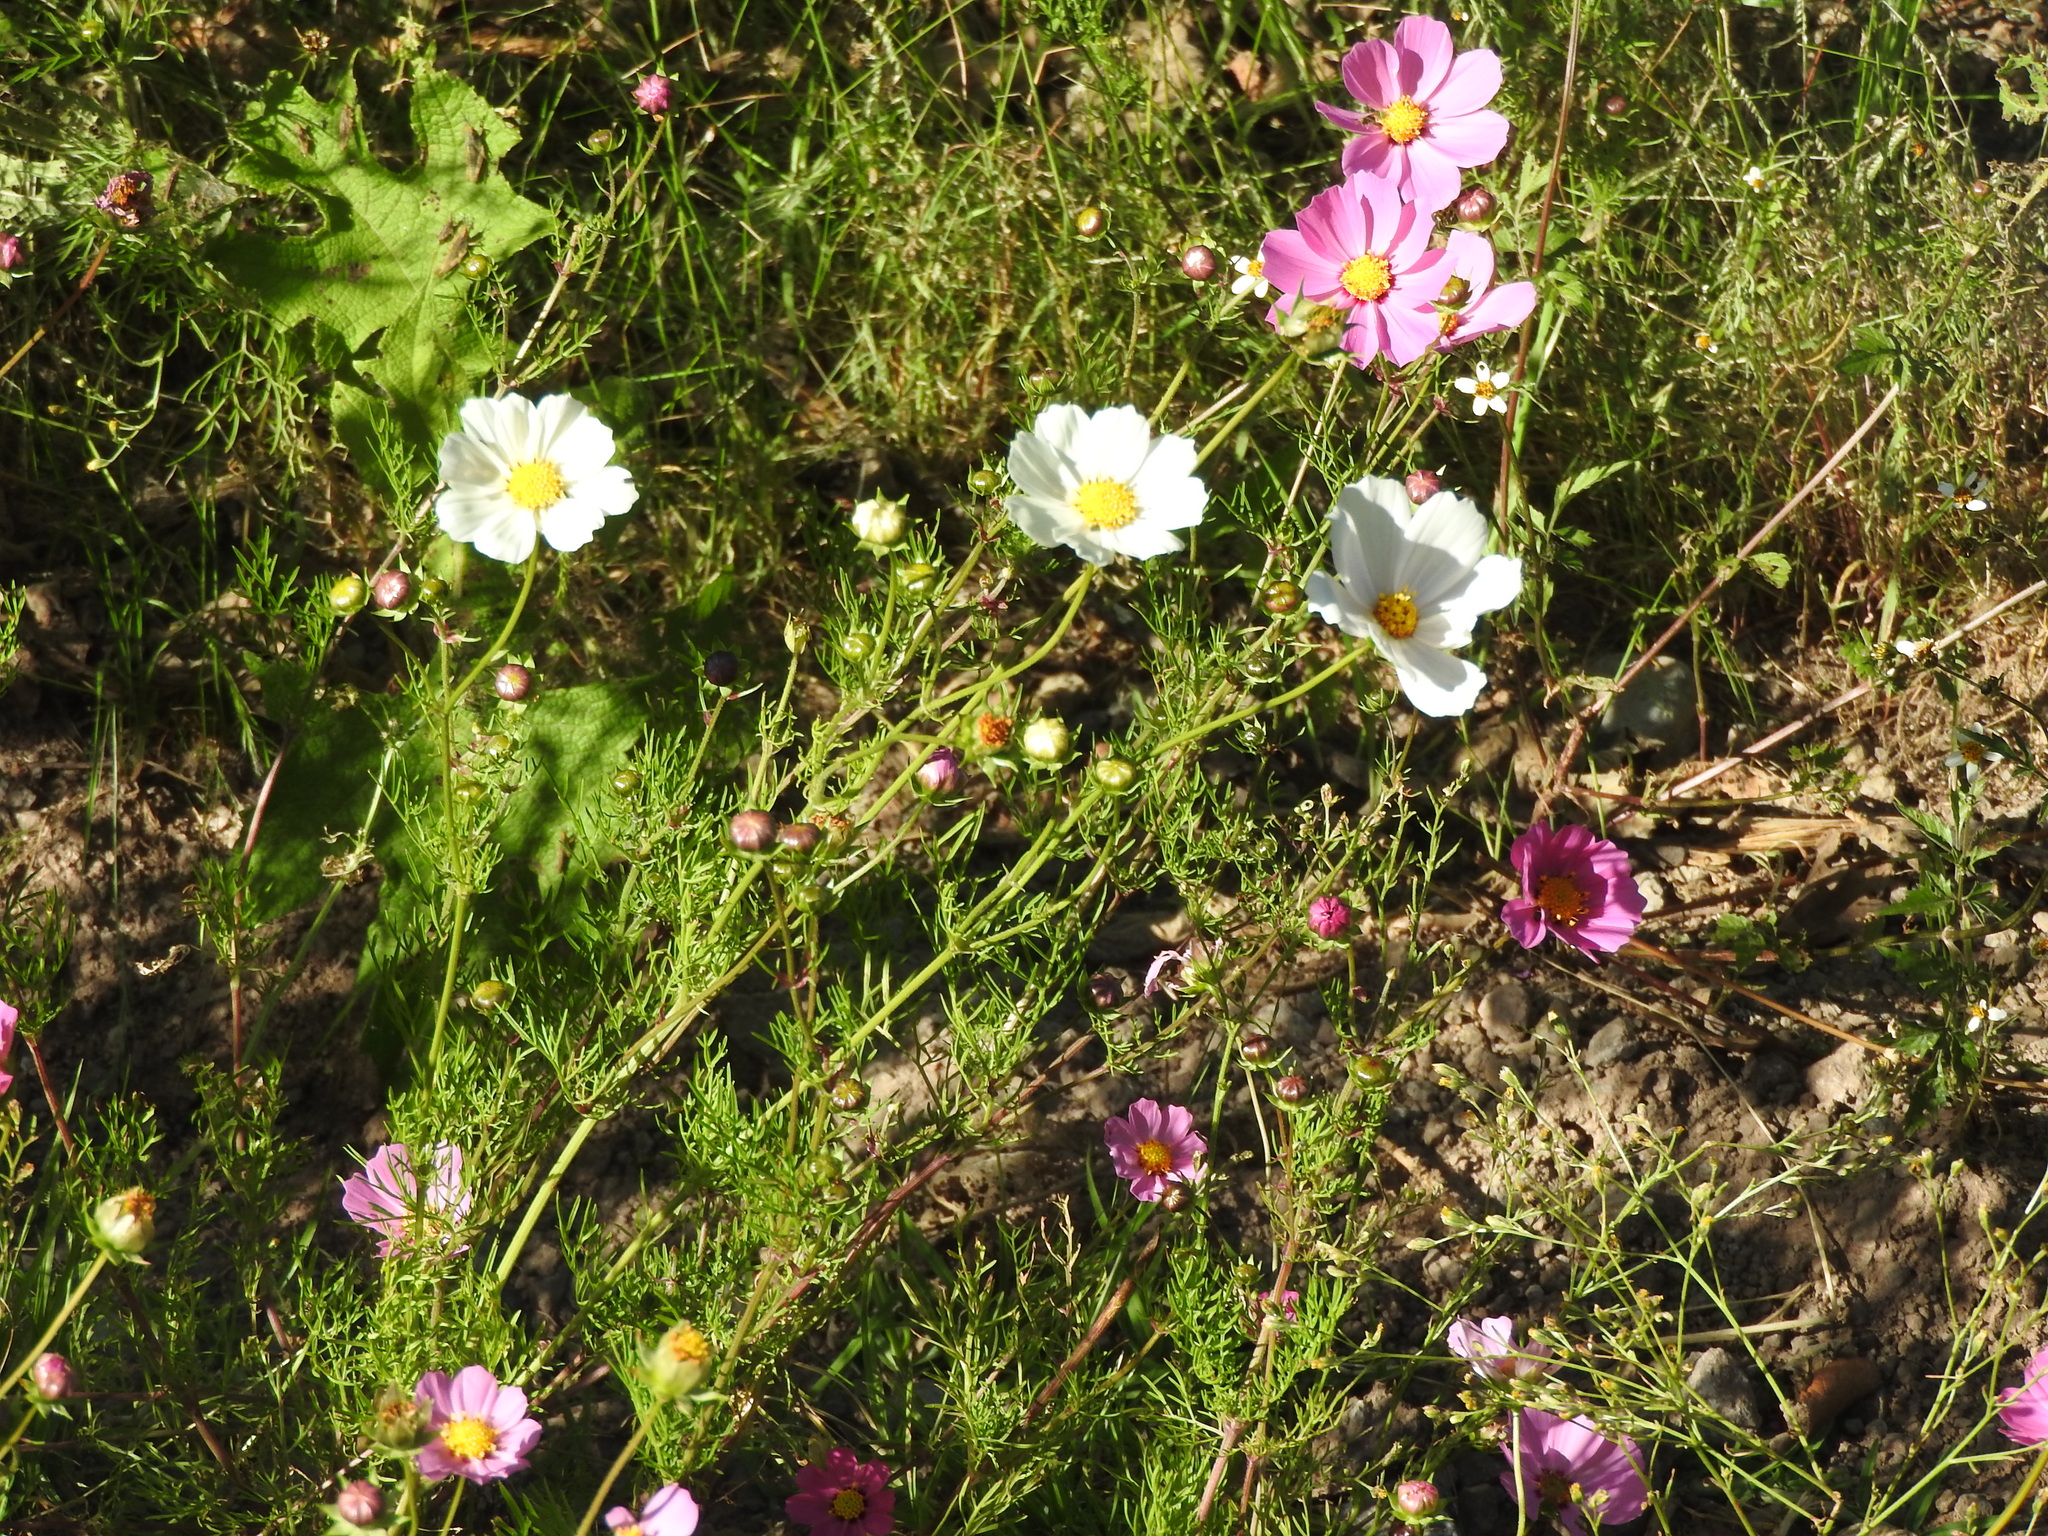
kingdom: Plantae
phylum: Tracheophyta
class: Magnoliopsida
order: Asterales
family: Asteraceae
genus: Cosmos
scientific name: Cosmos bipinnatus
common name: Garden cosmos
